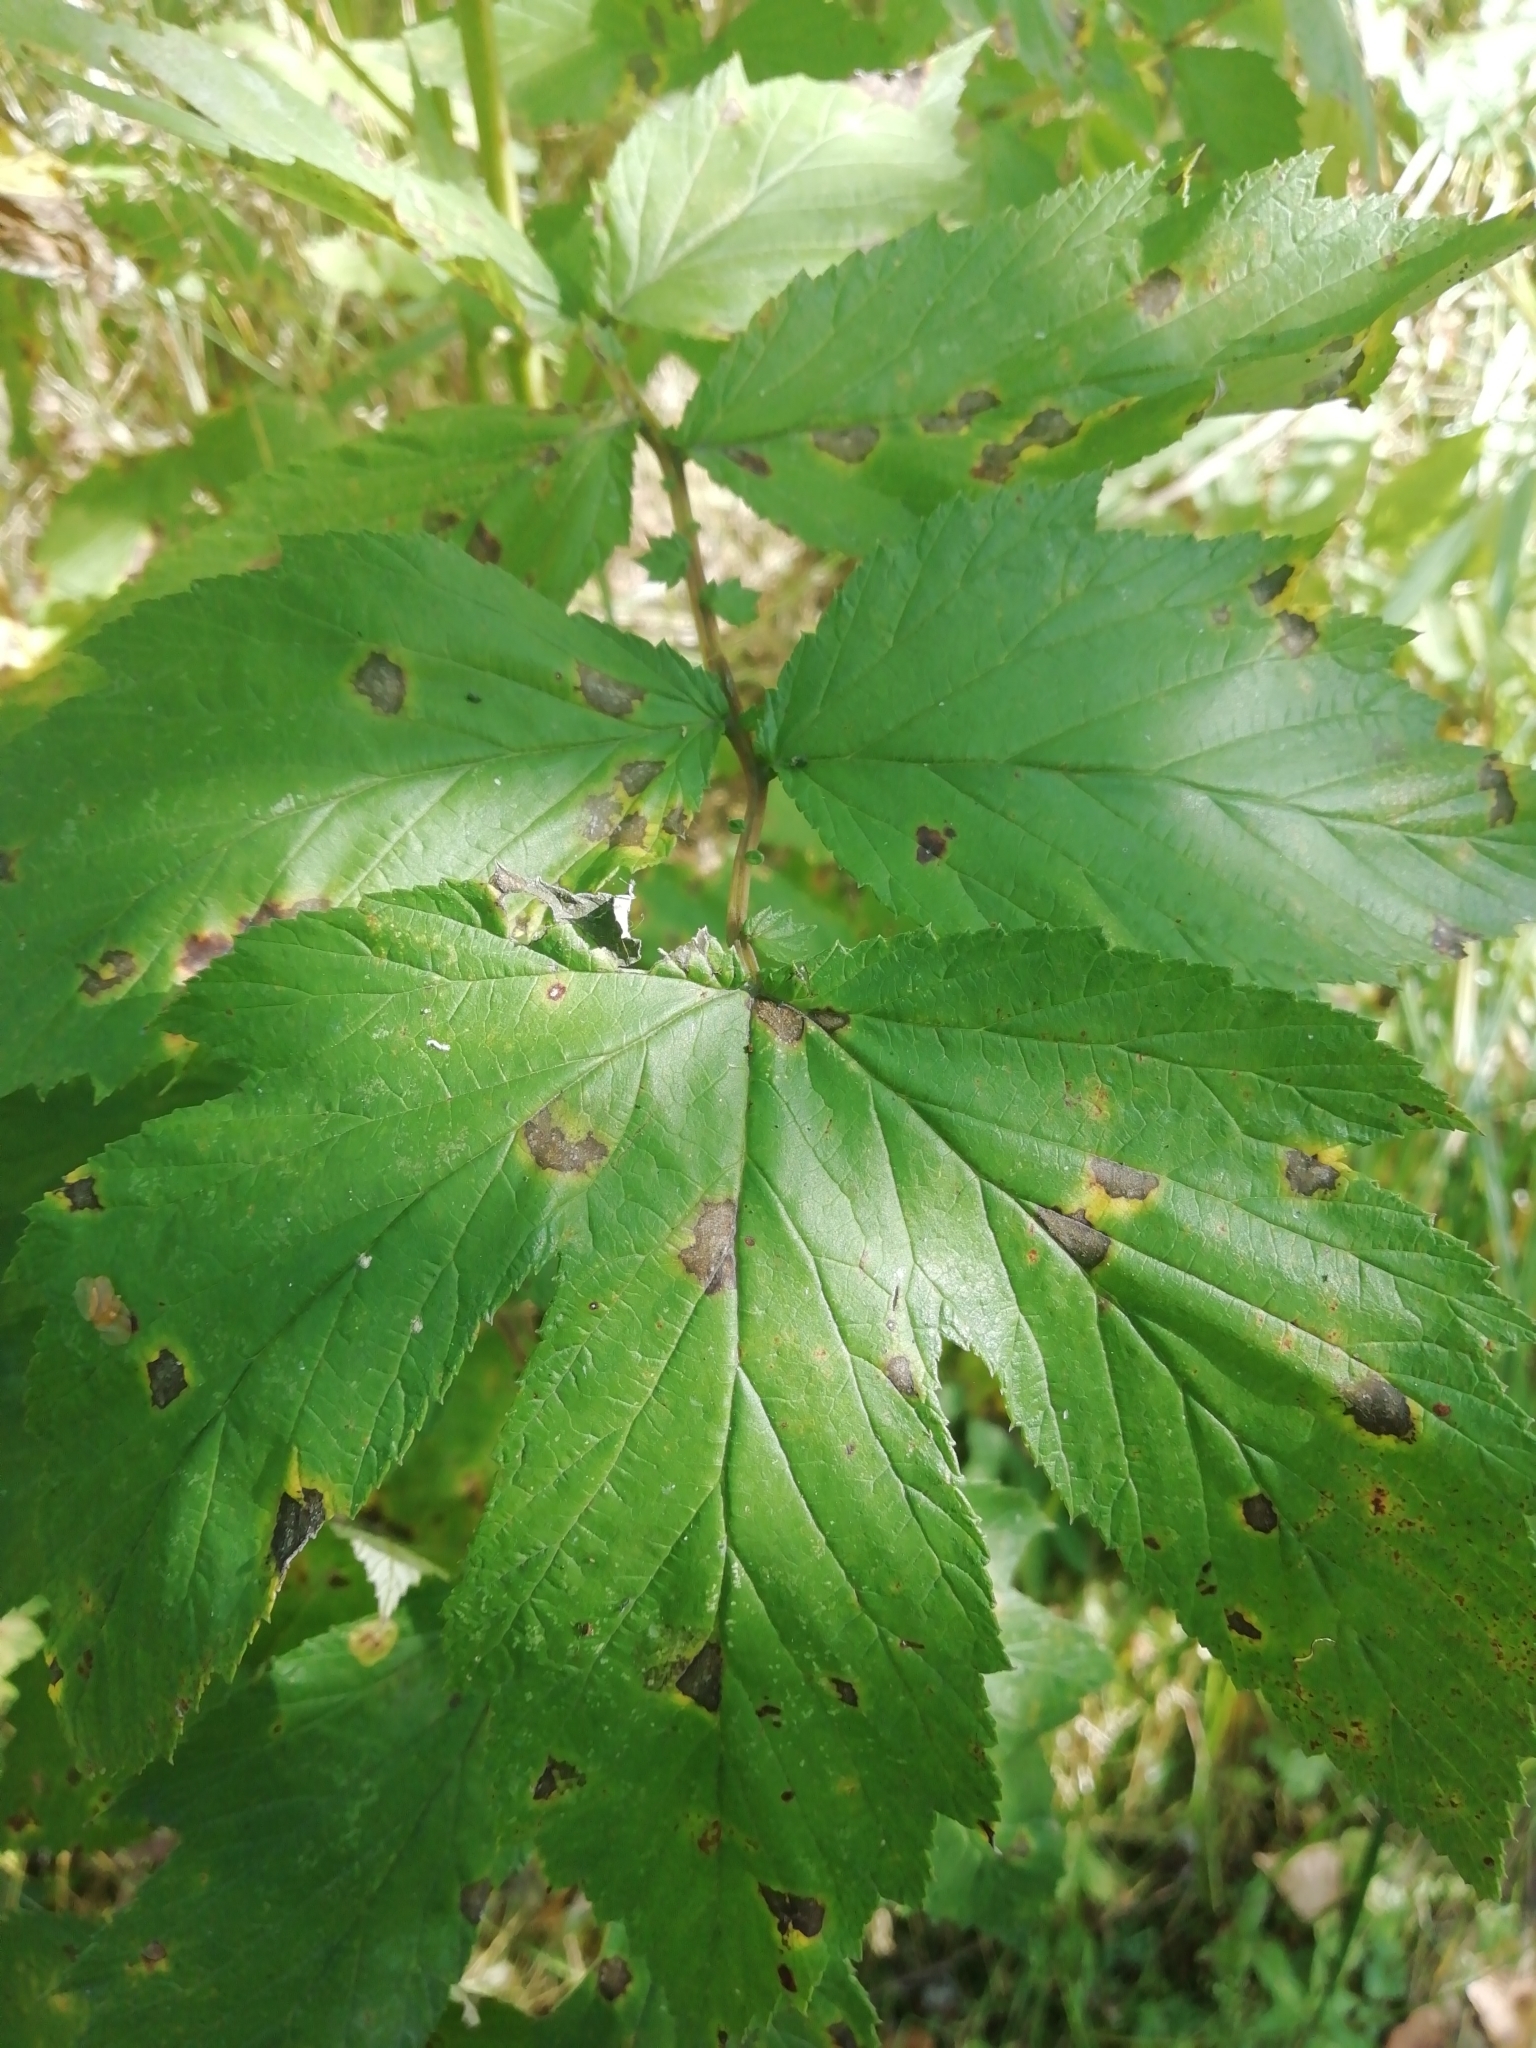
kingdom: Plantae
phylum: Tracheophyta
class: Magnoliopsida
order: Rosales
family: Rosaceae
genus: Filipendula
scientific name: Filipendula ulmaria
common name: Meadowsweet
